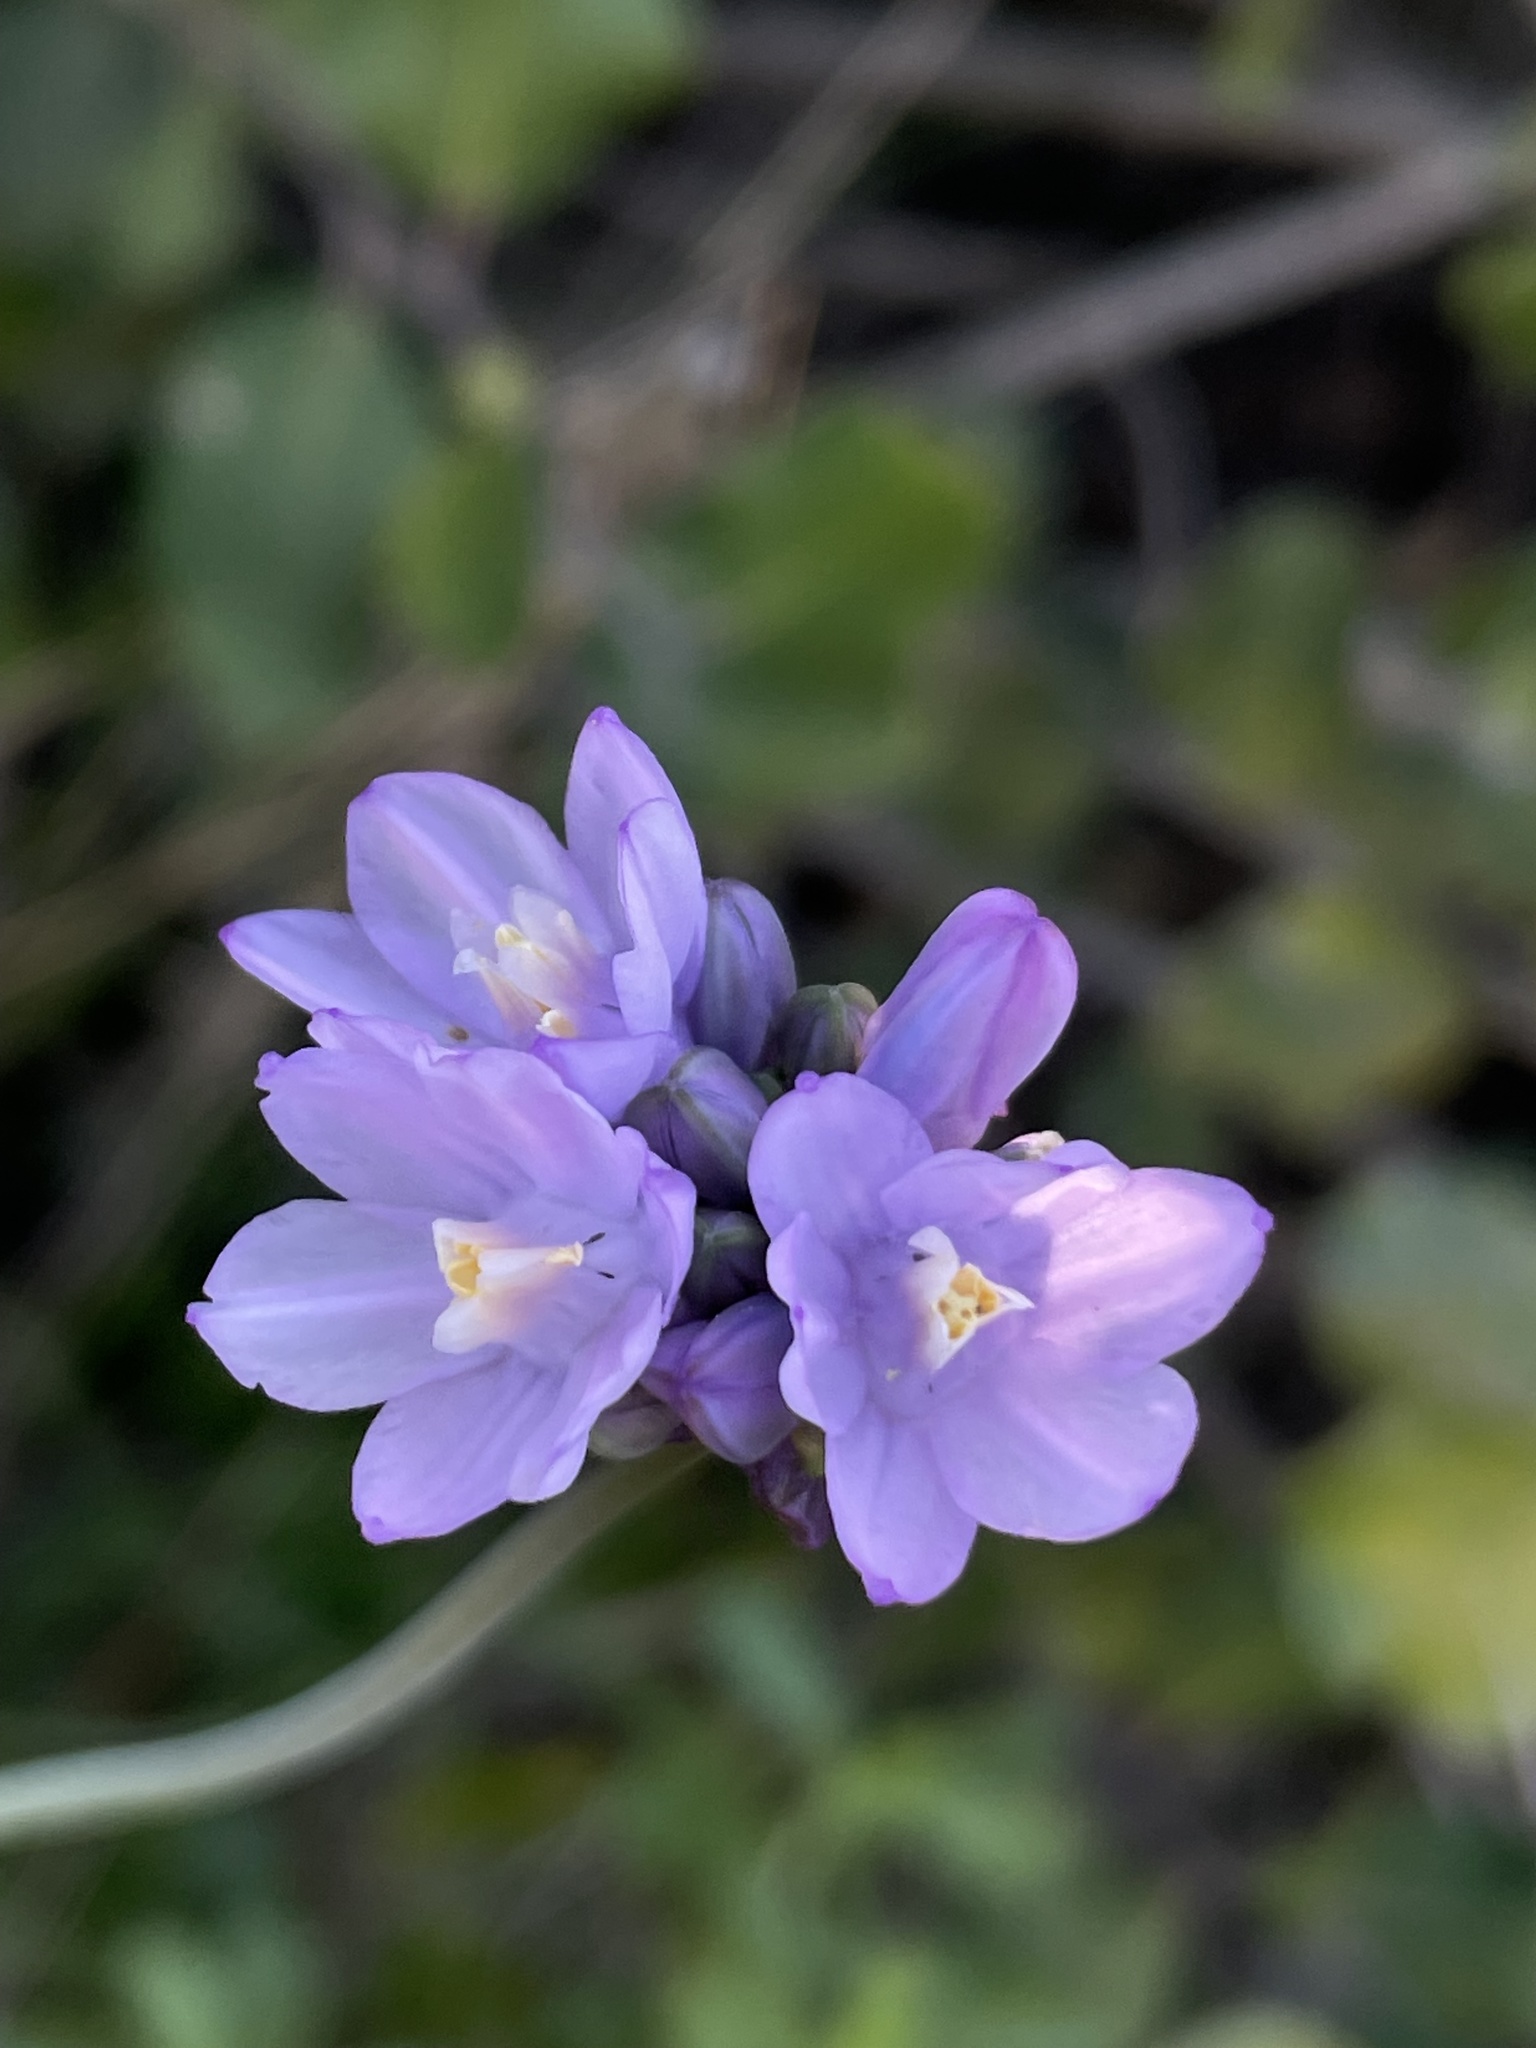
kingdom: Plantae
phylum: Tracheophyta
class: Liliopsida
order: Asparagales
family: Asparagaceae
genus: Dipterostemon
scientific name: Dipterostemon capitatus
